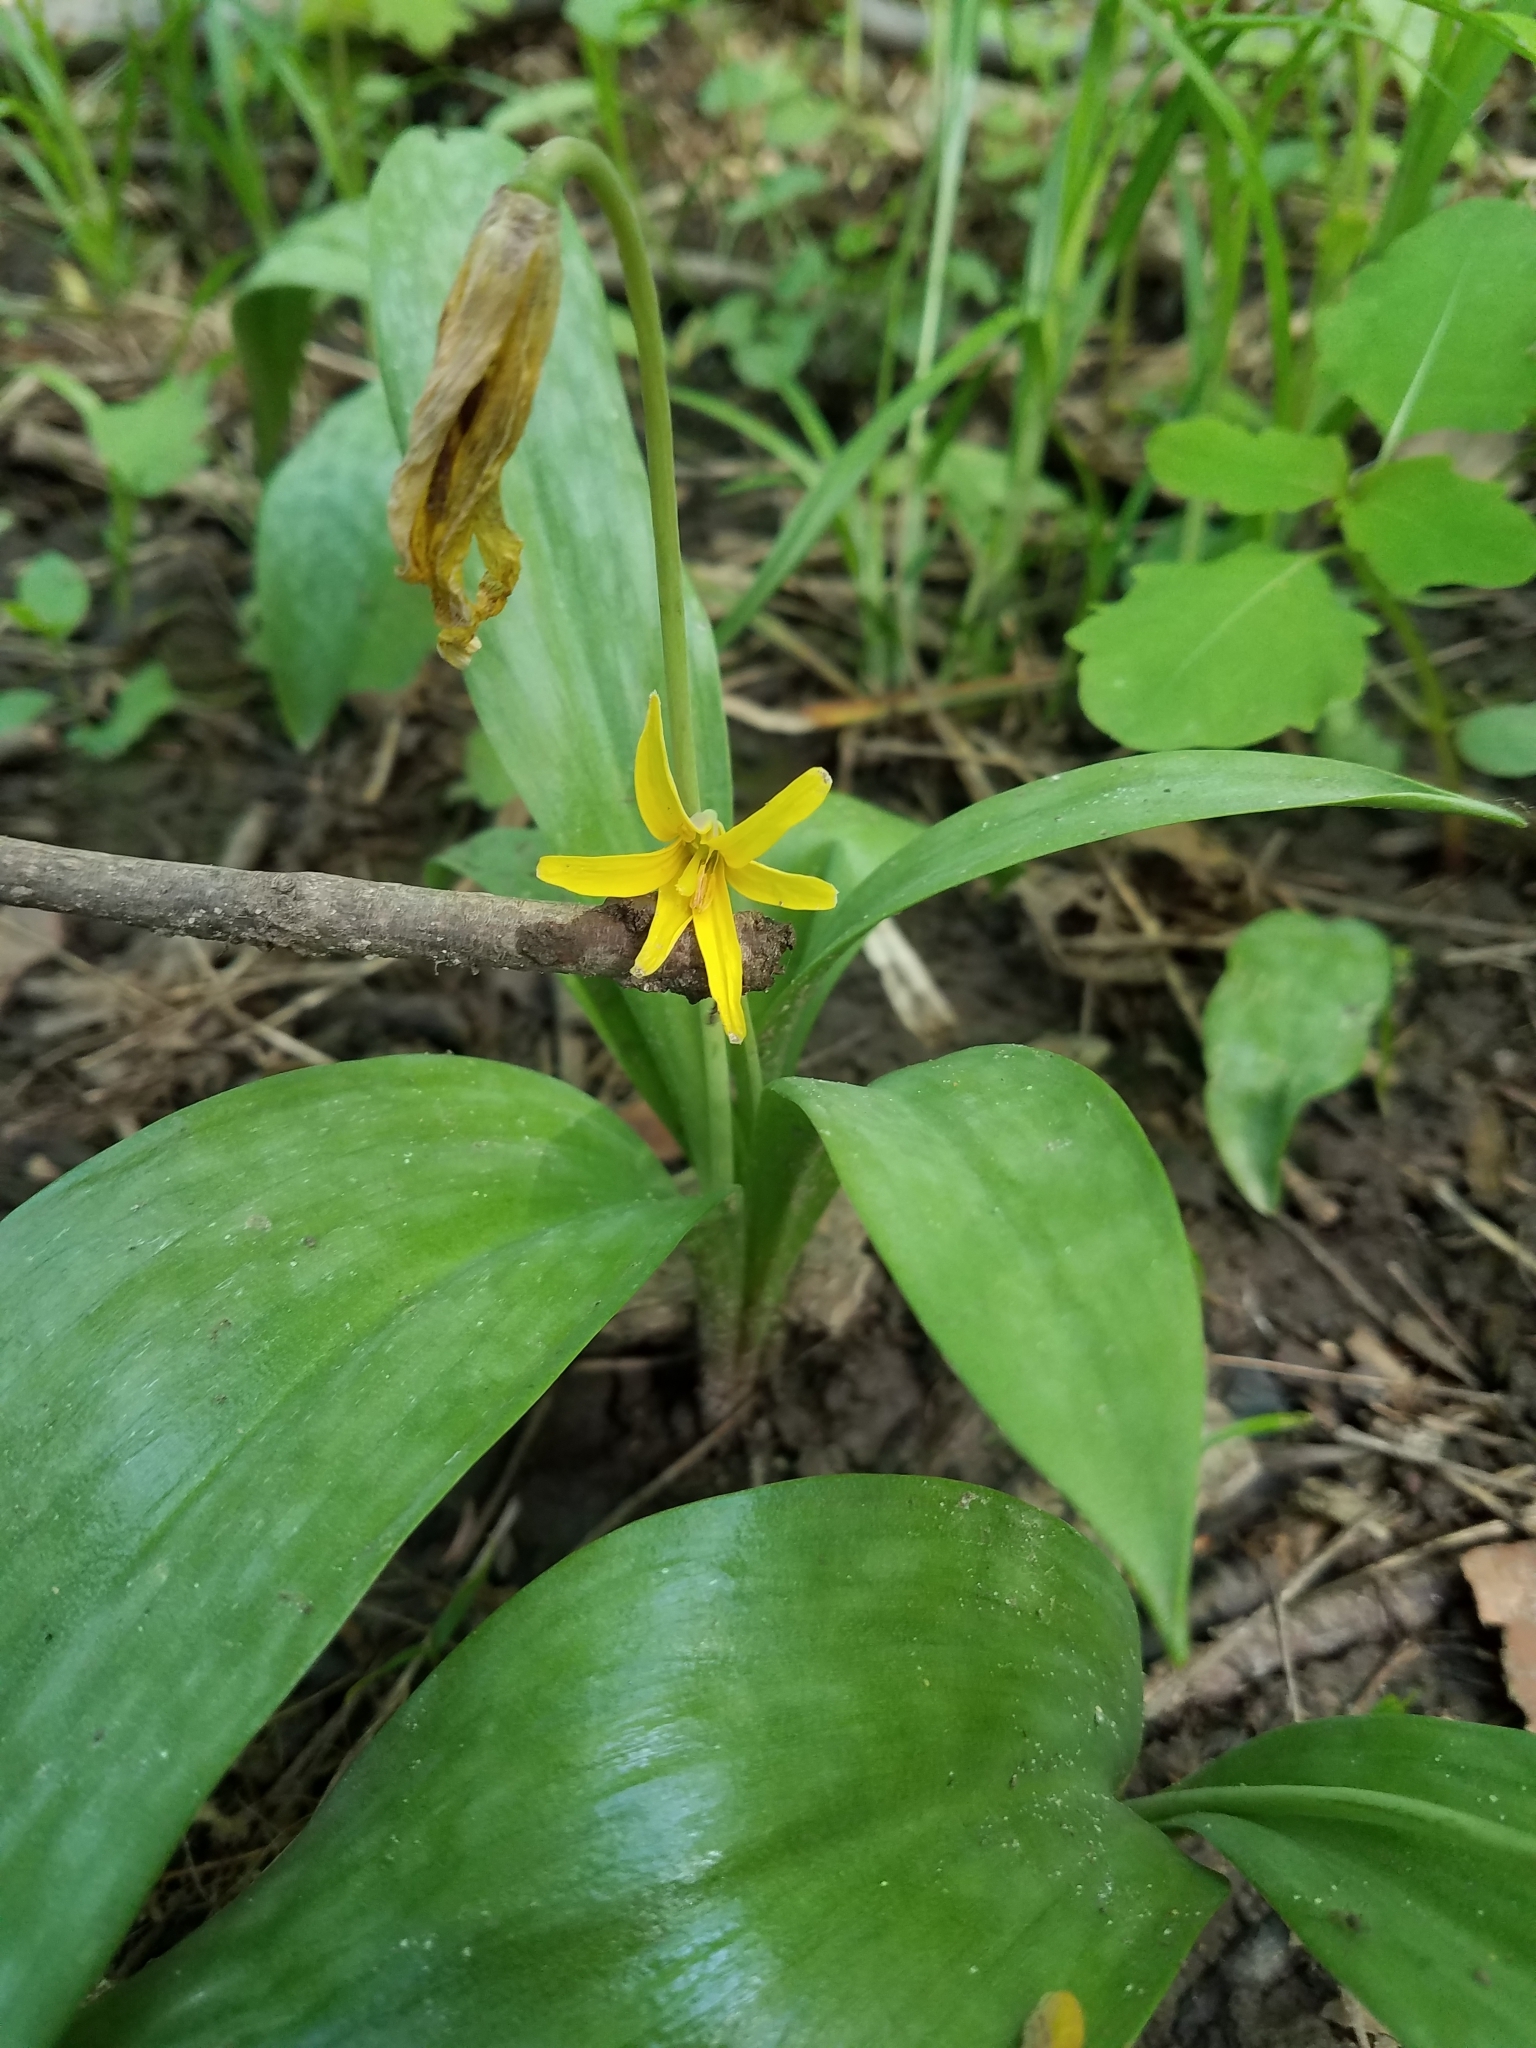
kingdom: Plantae
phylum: Tracheophyta
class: Liliopsida
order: Liliales
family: Liliaceae
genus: Erythronium
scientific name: Erythronium americanum
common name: Yellow adder's-tongue
